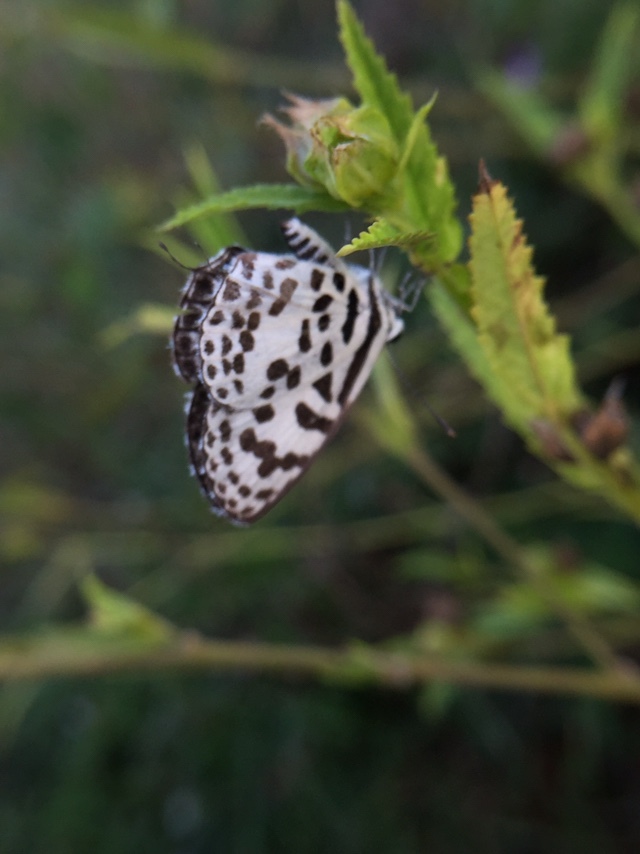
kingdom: Animalia
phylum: Arthropoda
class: Insecta
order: Lepidoptera
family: Lycaenidae
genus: Castalius
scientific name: Castalius rosimon
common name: Common pierrot
